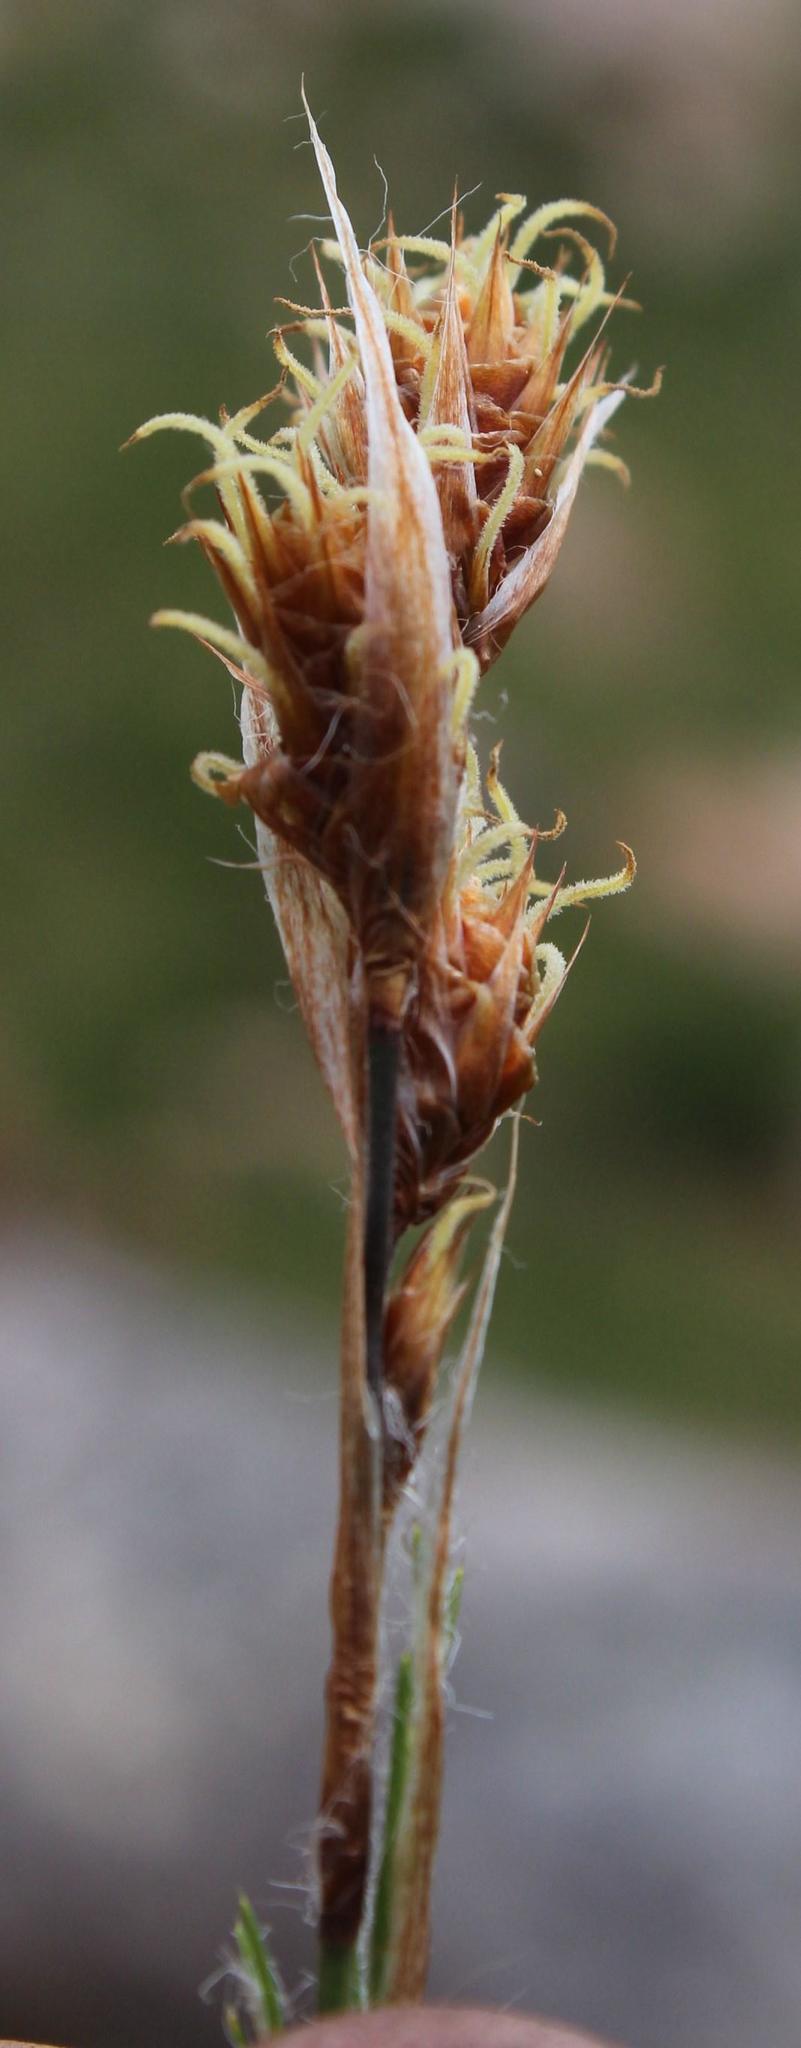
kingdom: Plantae
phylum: Tracheophyta
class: Liliopsida
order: Poales
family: Restionaceae
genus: Thamnochortus
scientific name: Thamnochortus fruticosus
